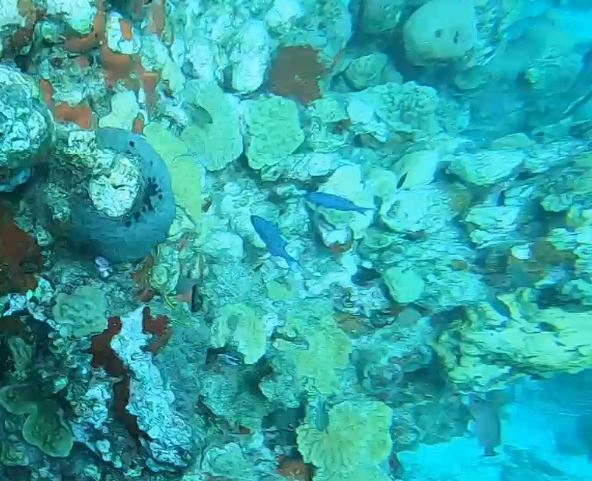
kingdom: Animalia
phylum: Chordata
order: Perciformes
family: Labridae
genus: Bodianus
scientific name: Bodianus
